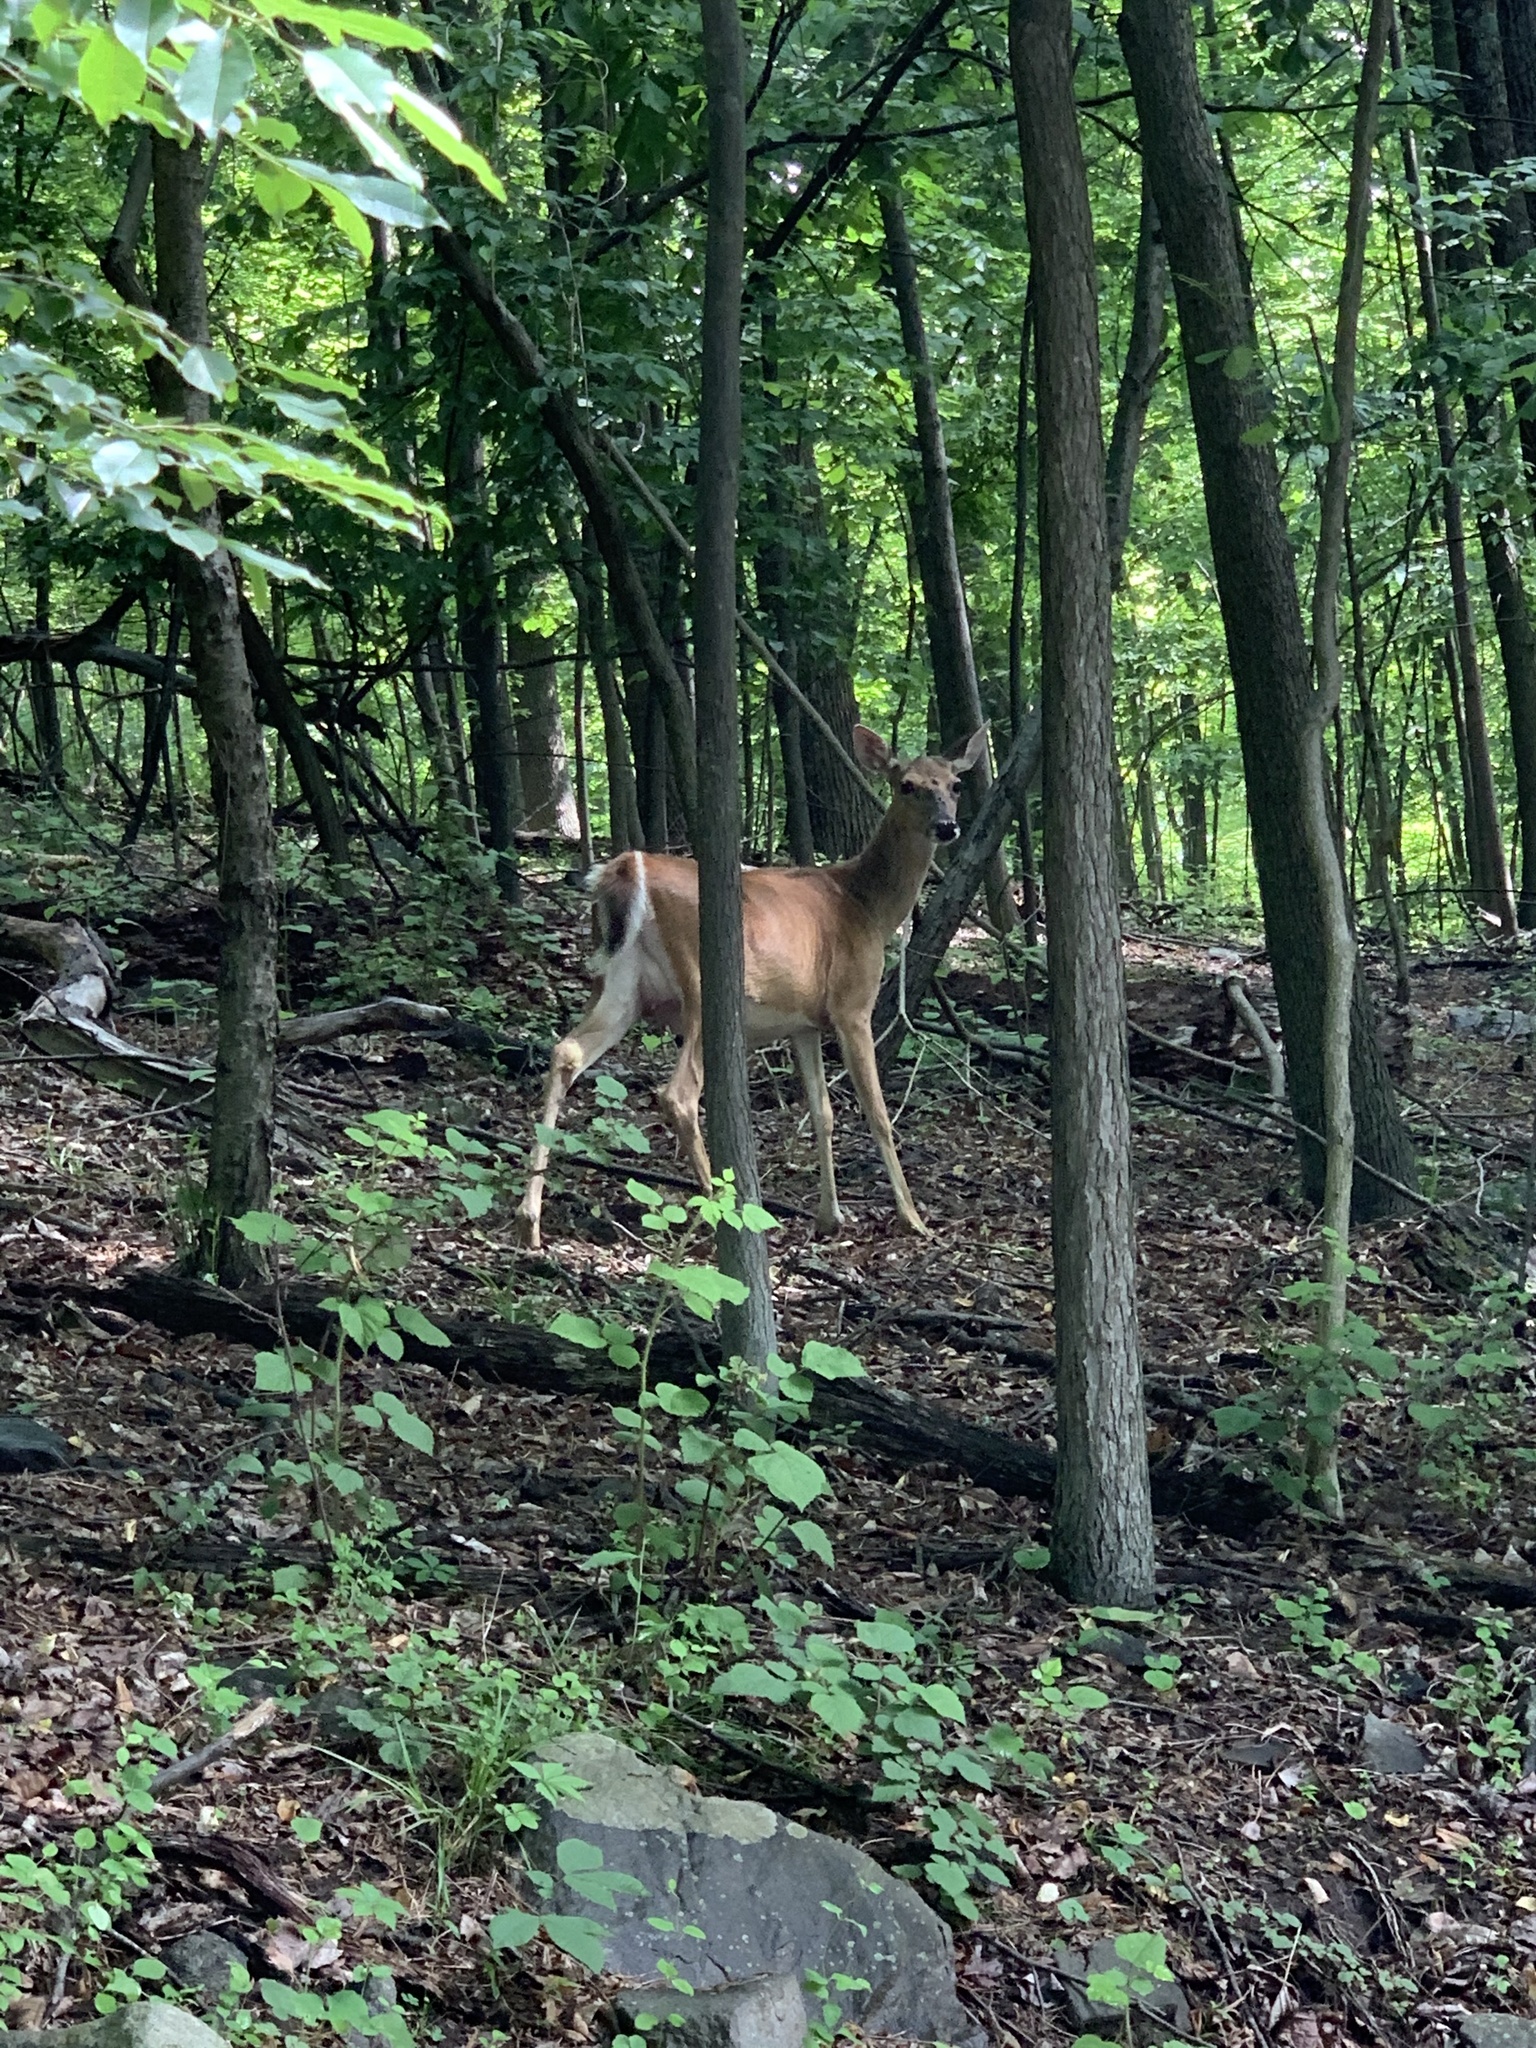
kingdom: Animalia
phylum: Chordata
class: Mammalia
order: Artiodactyla
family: Cervidae
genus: Odocoileus
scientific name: Odocoileus virginianus
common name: White-tailed deer
